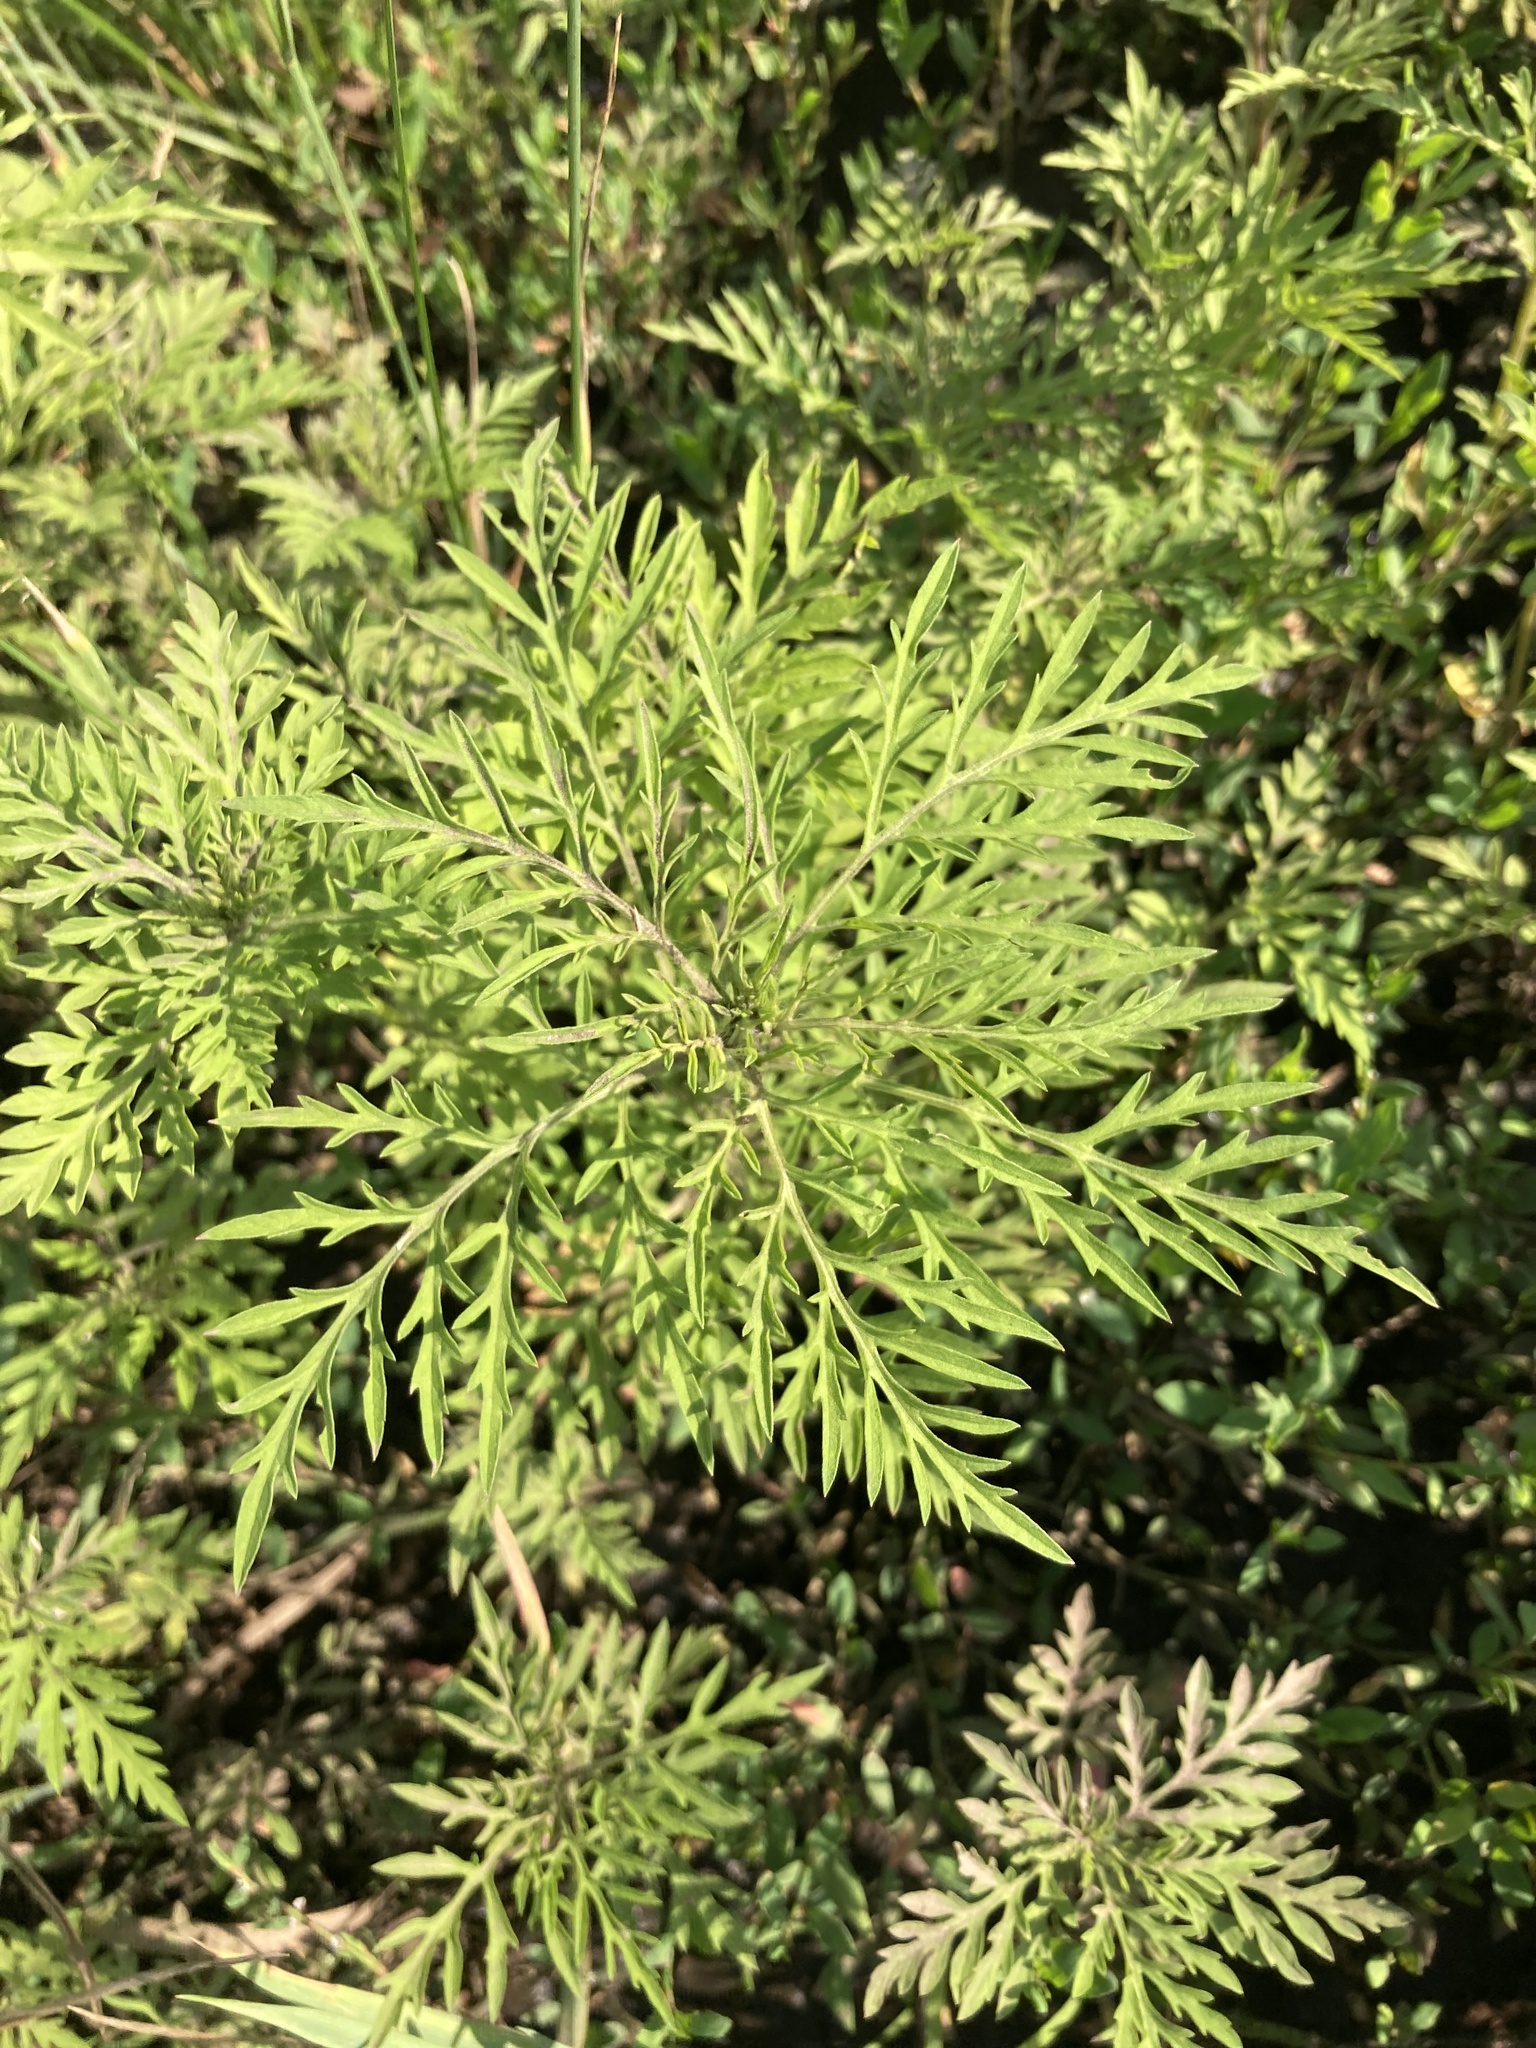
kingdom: Plantae
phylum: Tracheophyta
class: Magnoliopsida
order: Asterales
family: Asteraceae
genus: Ambrosia
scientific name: Ambrosia artemisiifolia
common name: Annual ragweed
